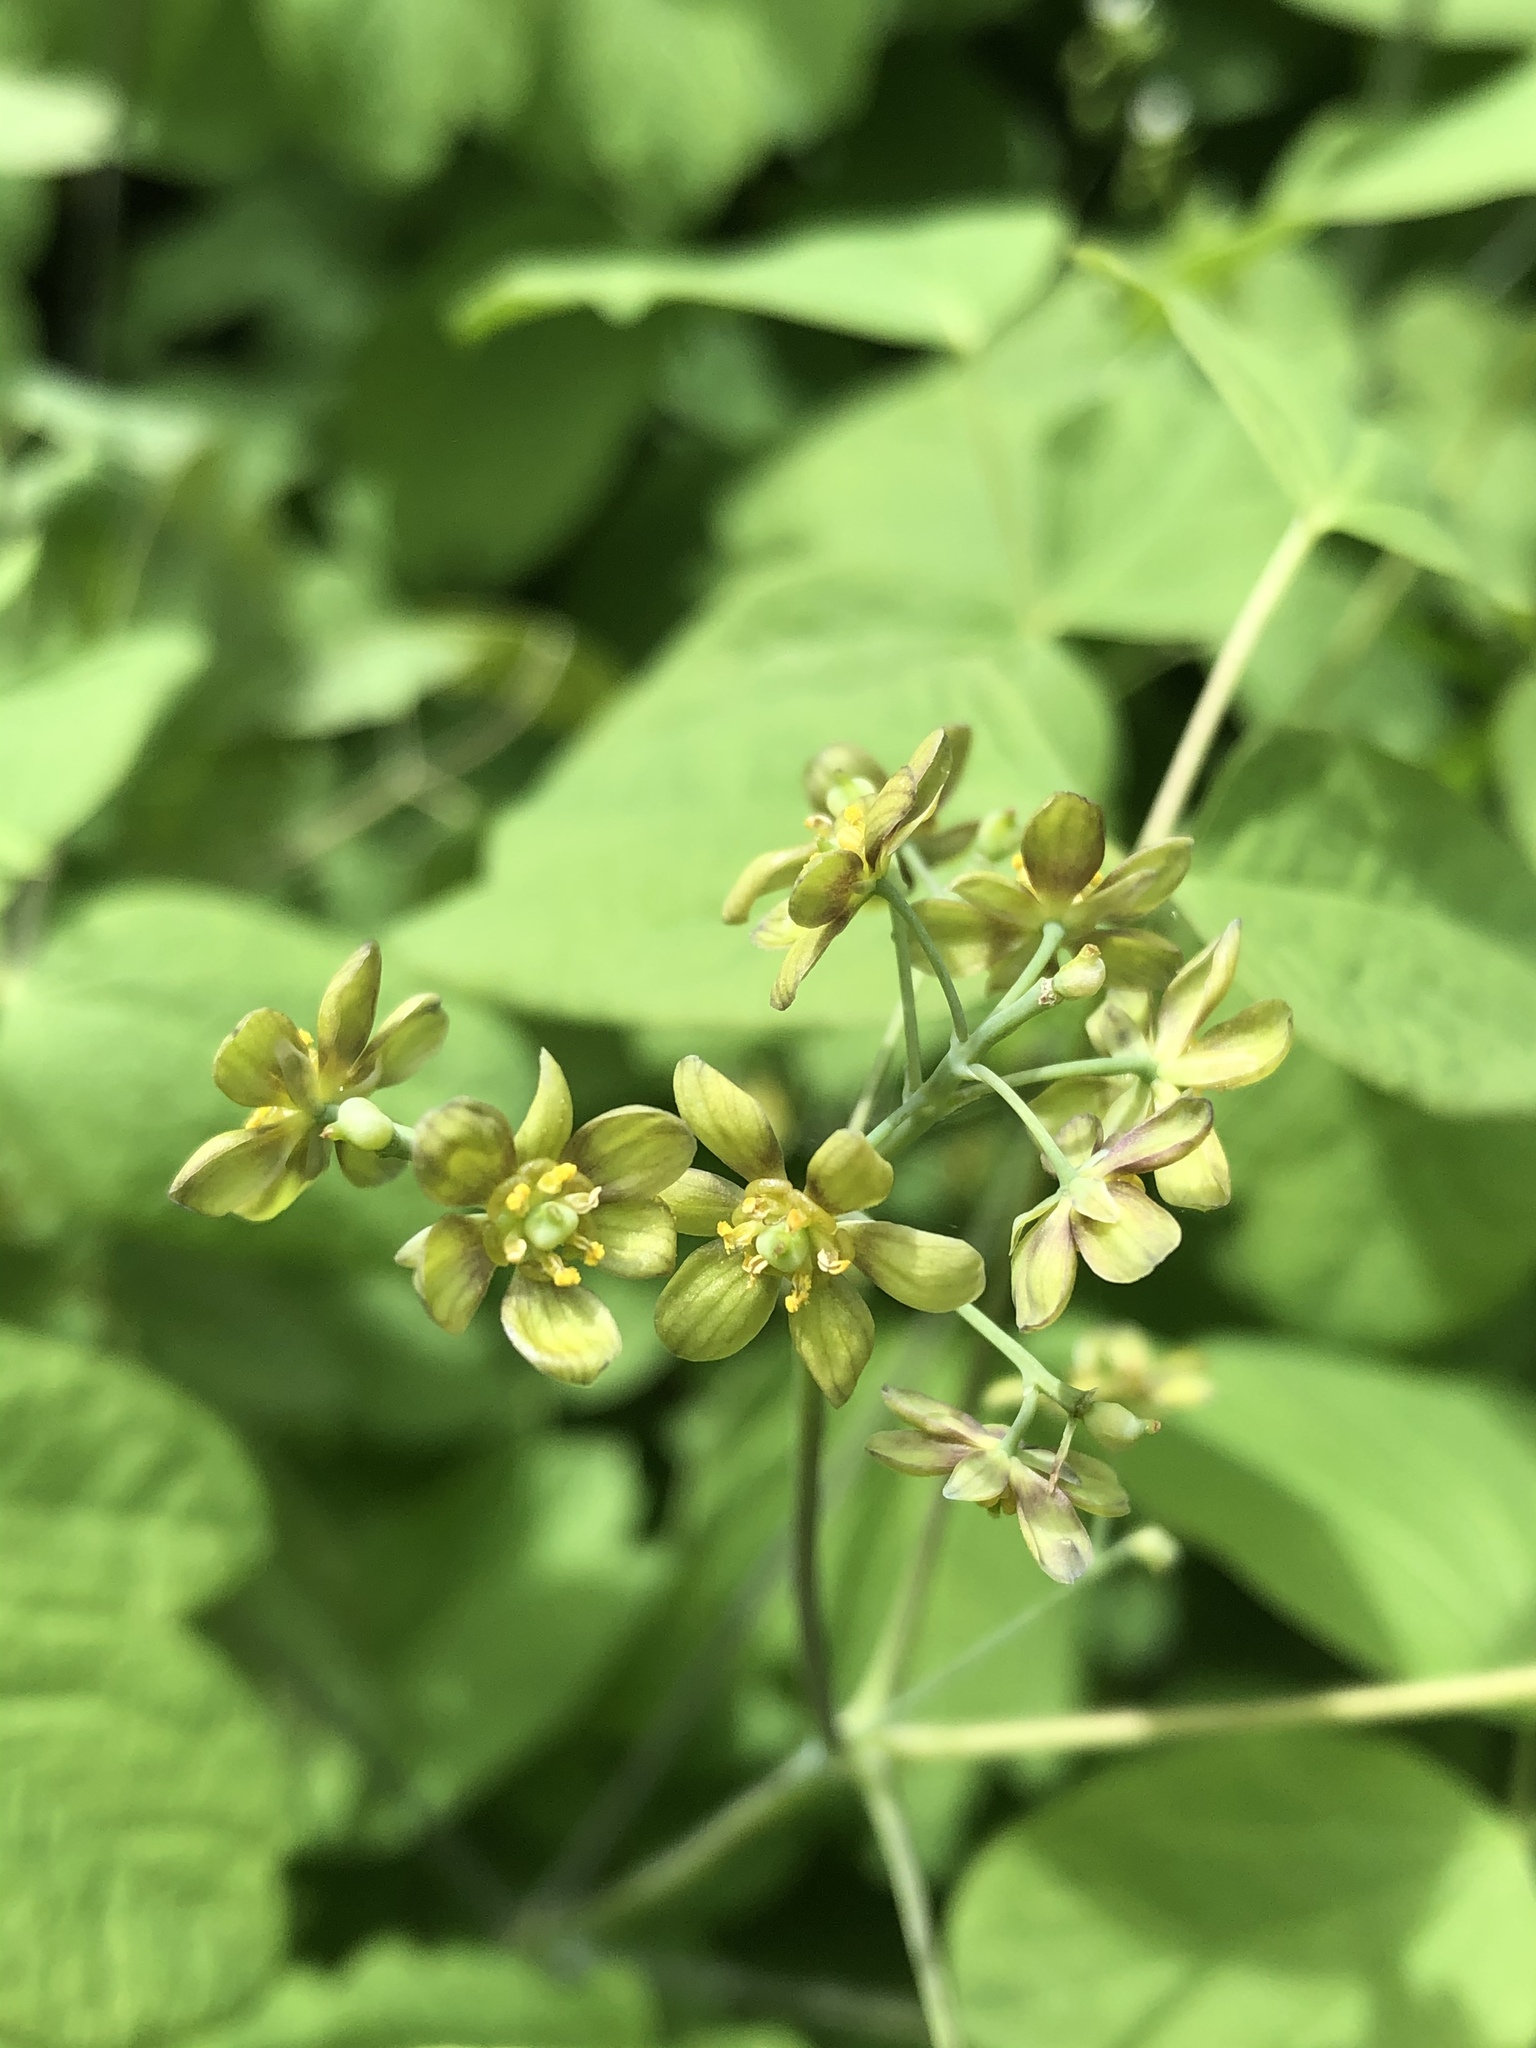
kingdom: Plantae
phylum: Tracheophyta
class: Magnoliopsida
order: Ranunculales
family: Berberidaceae
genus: Caulophyllum
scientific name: Caulophyllum thalictroides
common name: Blue cohosh
